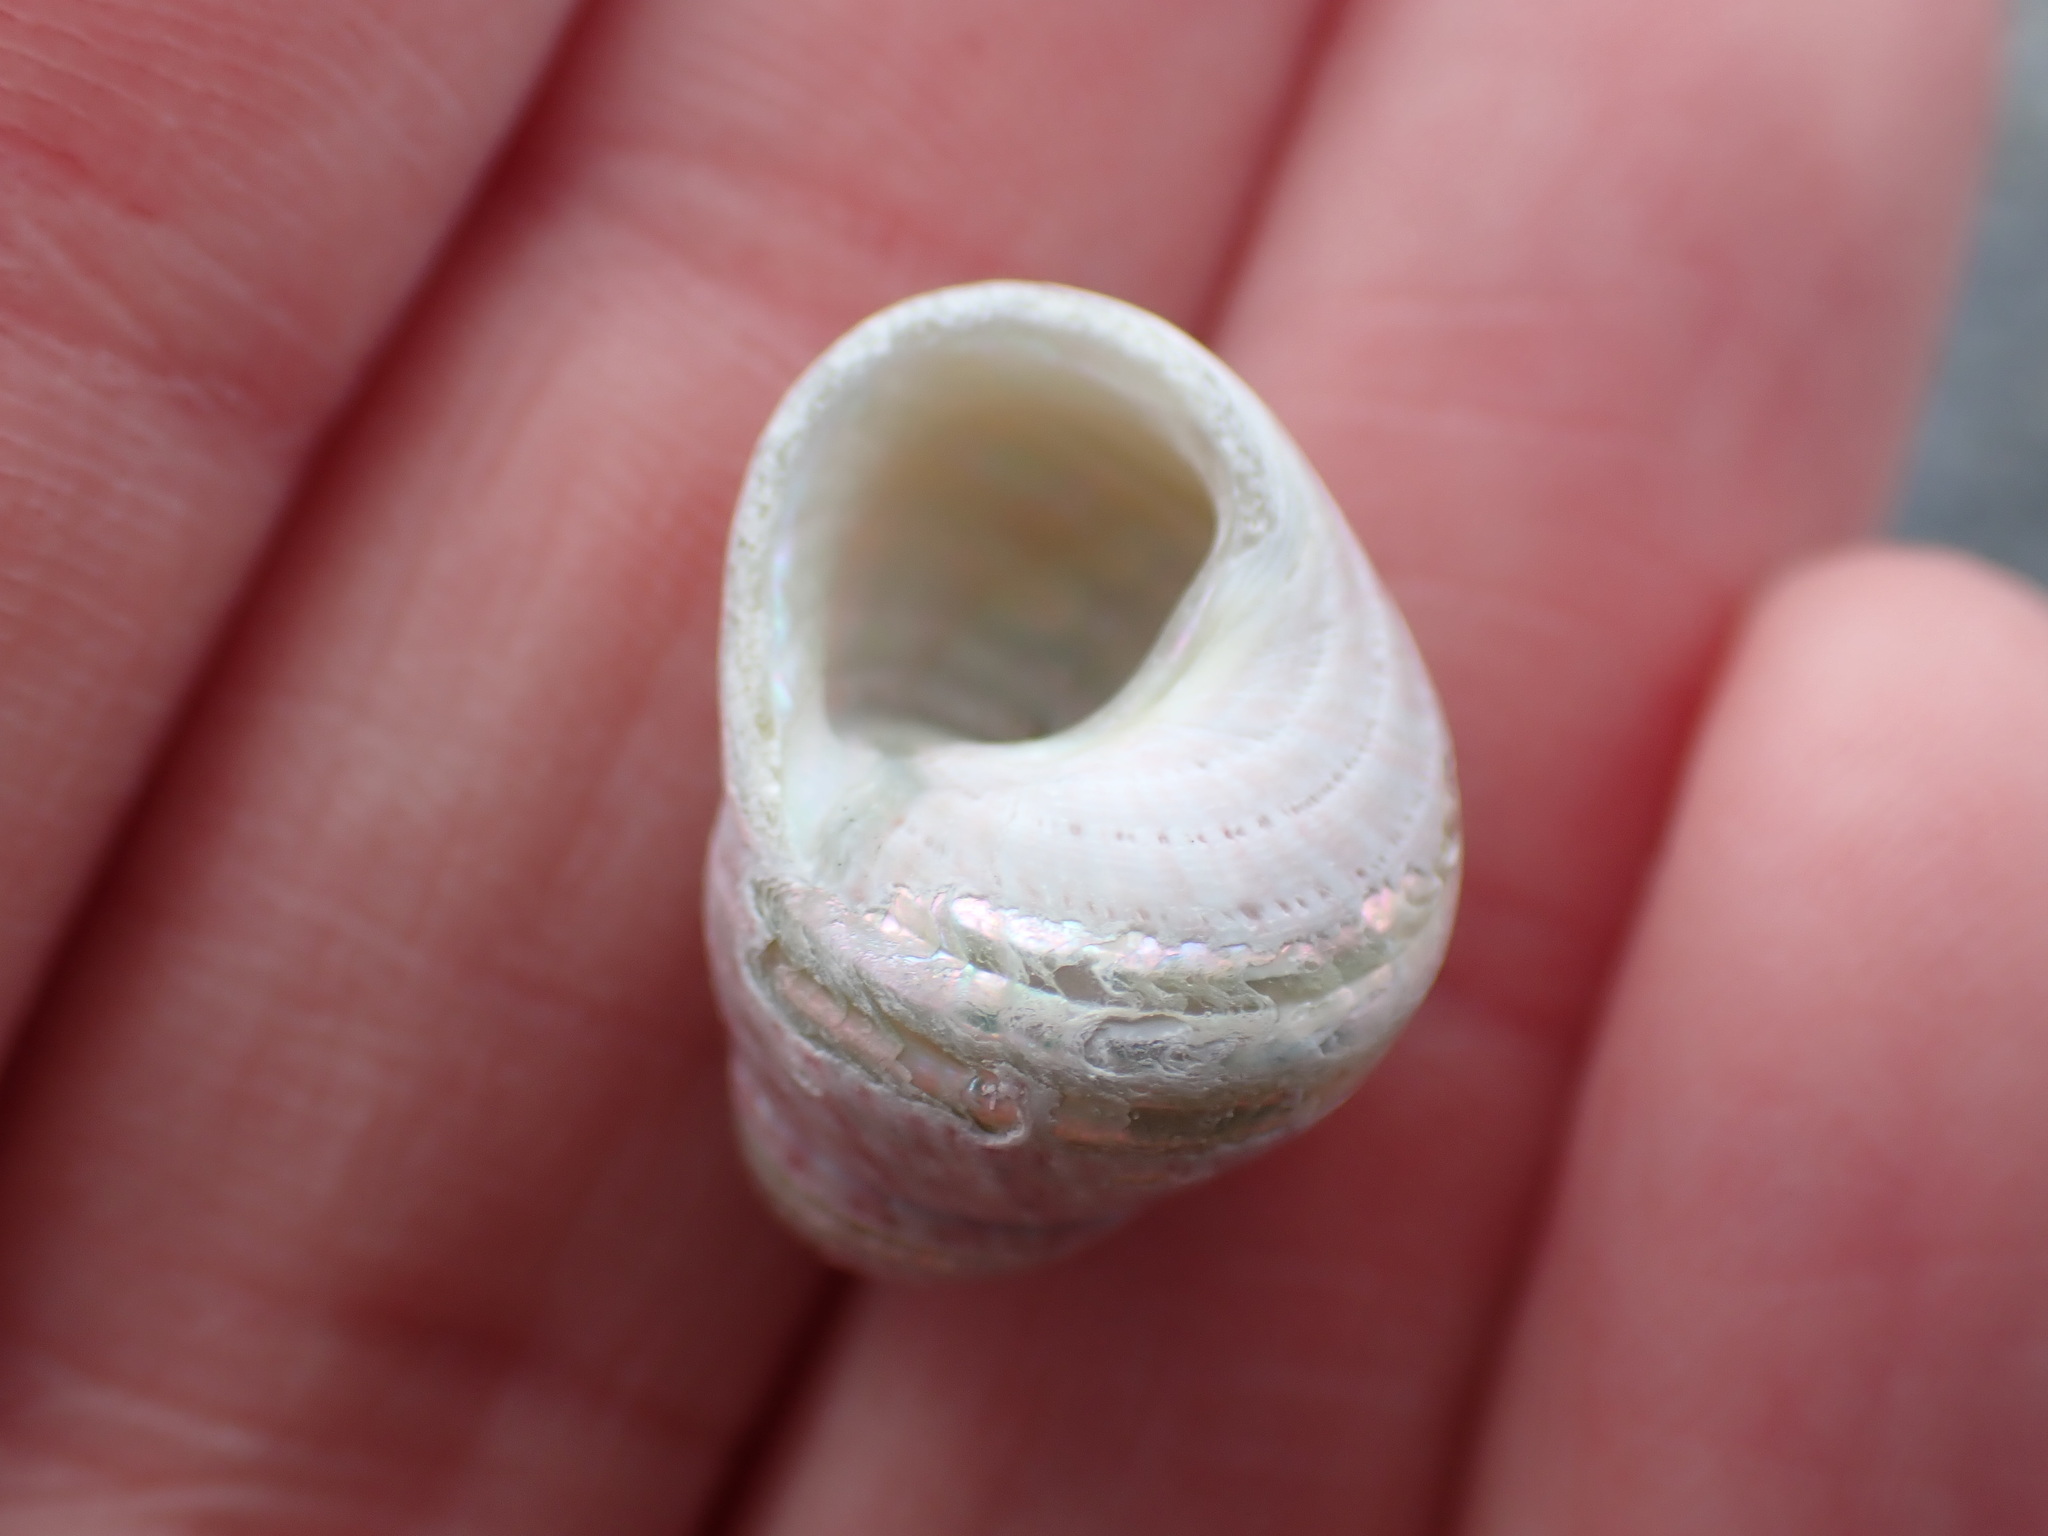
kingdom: Animalia
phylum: Mollusca
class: Gastropoda
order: Trochida
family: Trochidae
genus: Micrelenchus
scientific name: Micrelenchus purpureus
